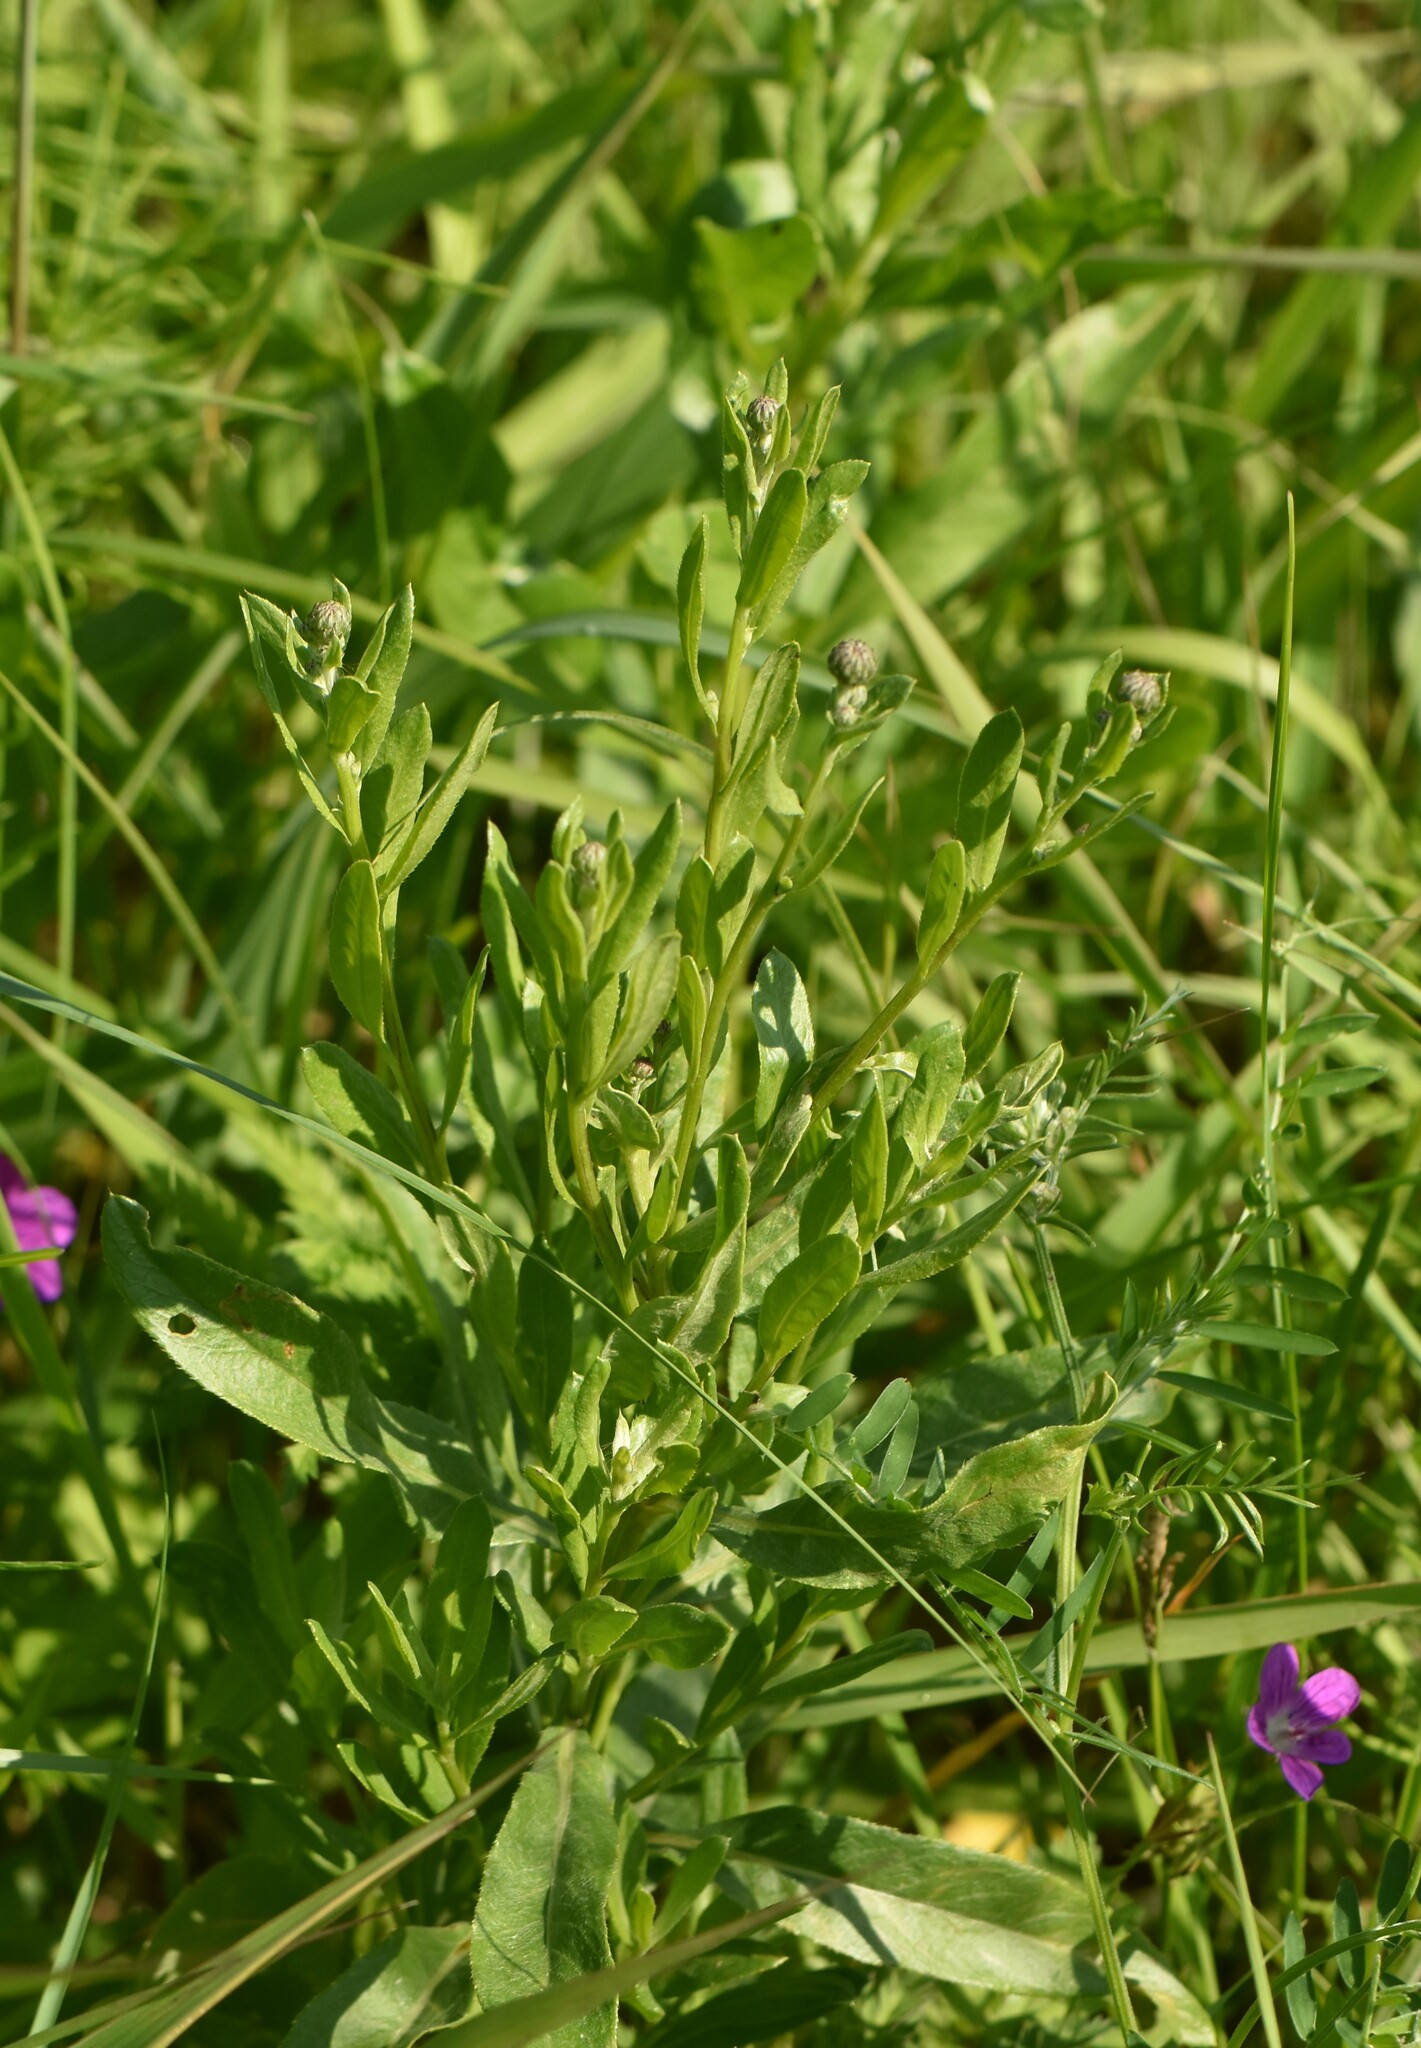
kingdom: Plantae
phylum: Tracheophyta
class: Magnoliopsida
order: Asterales
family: Asteraceae
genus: Cirsium
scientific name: Cirsium arvense
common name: Creeping thistle
